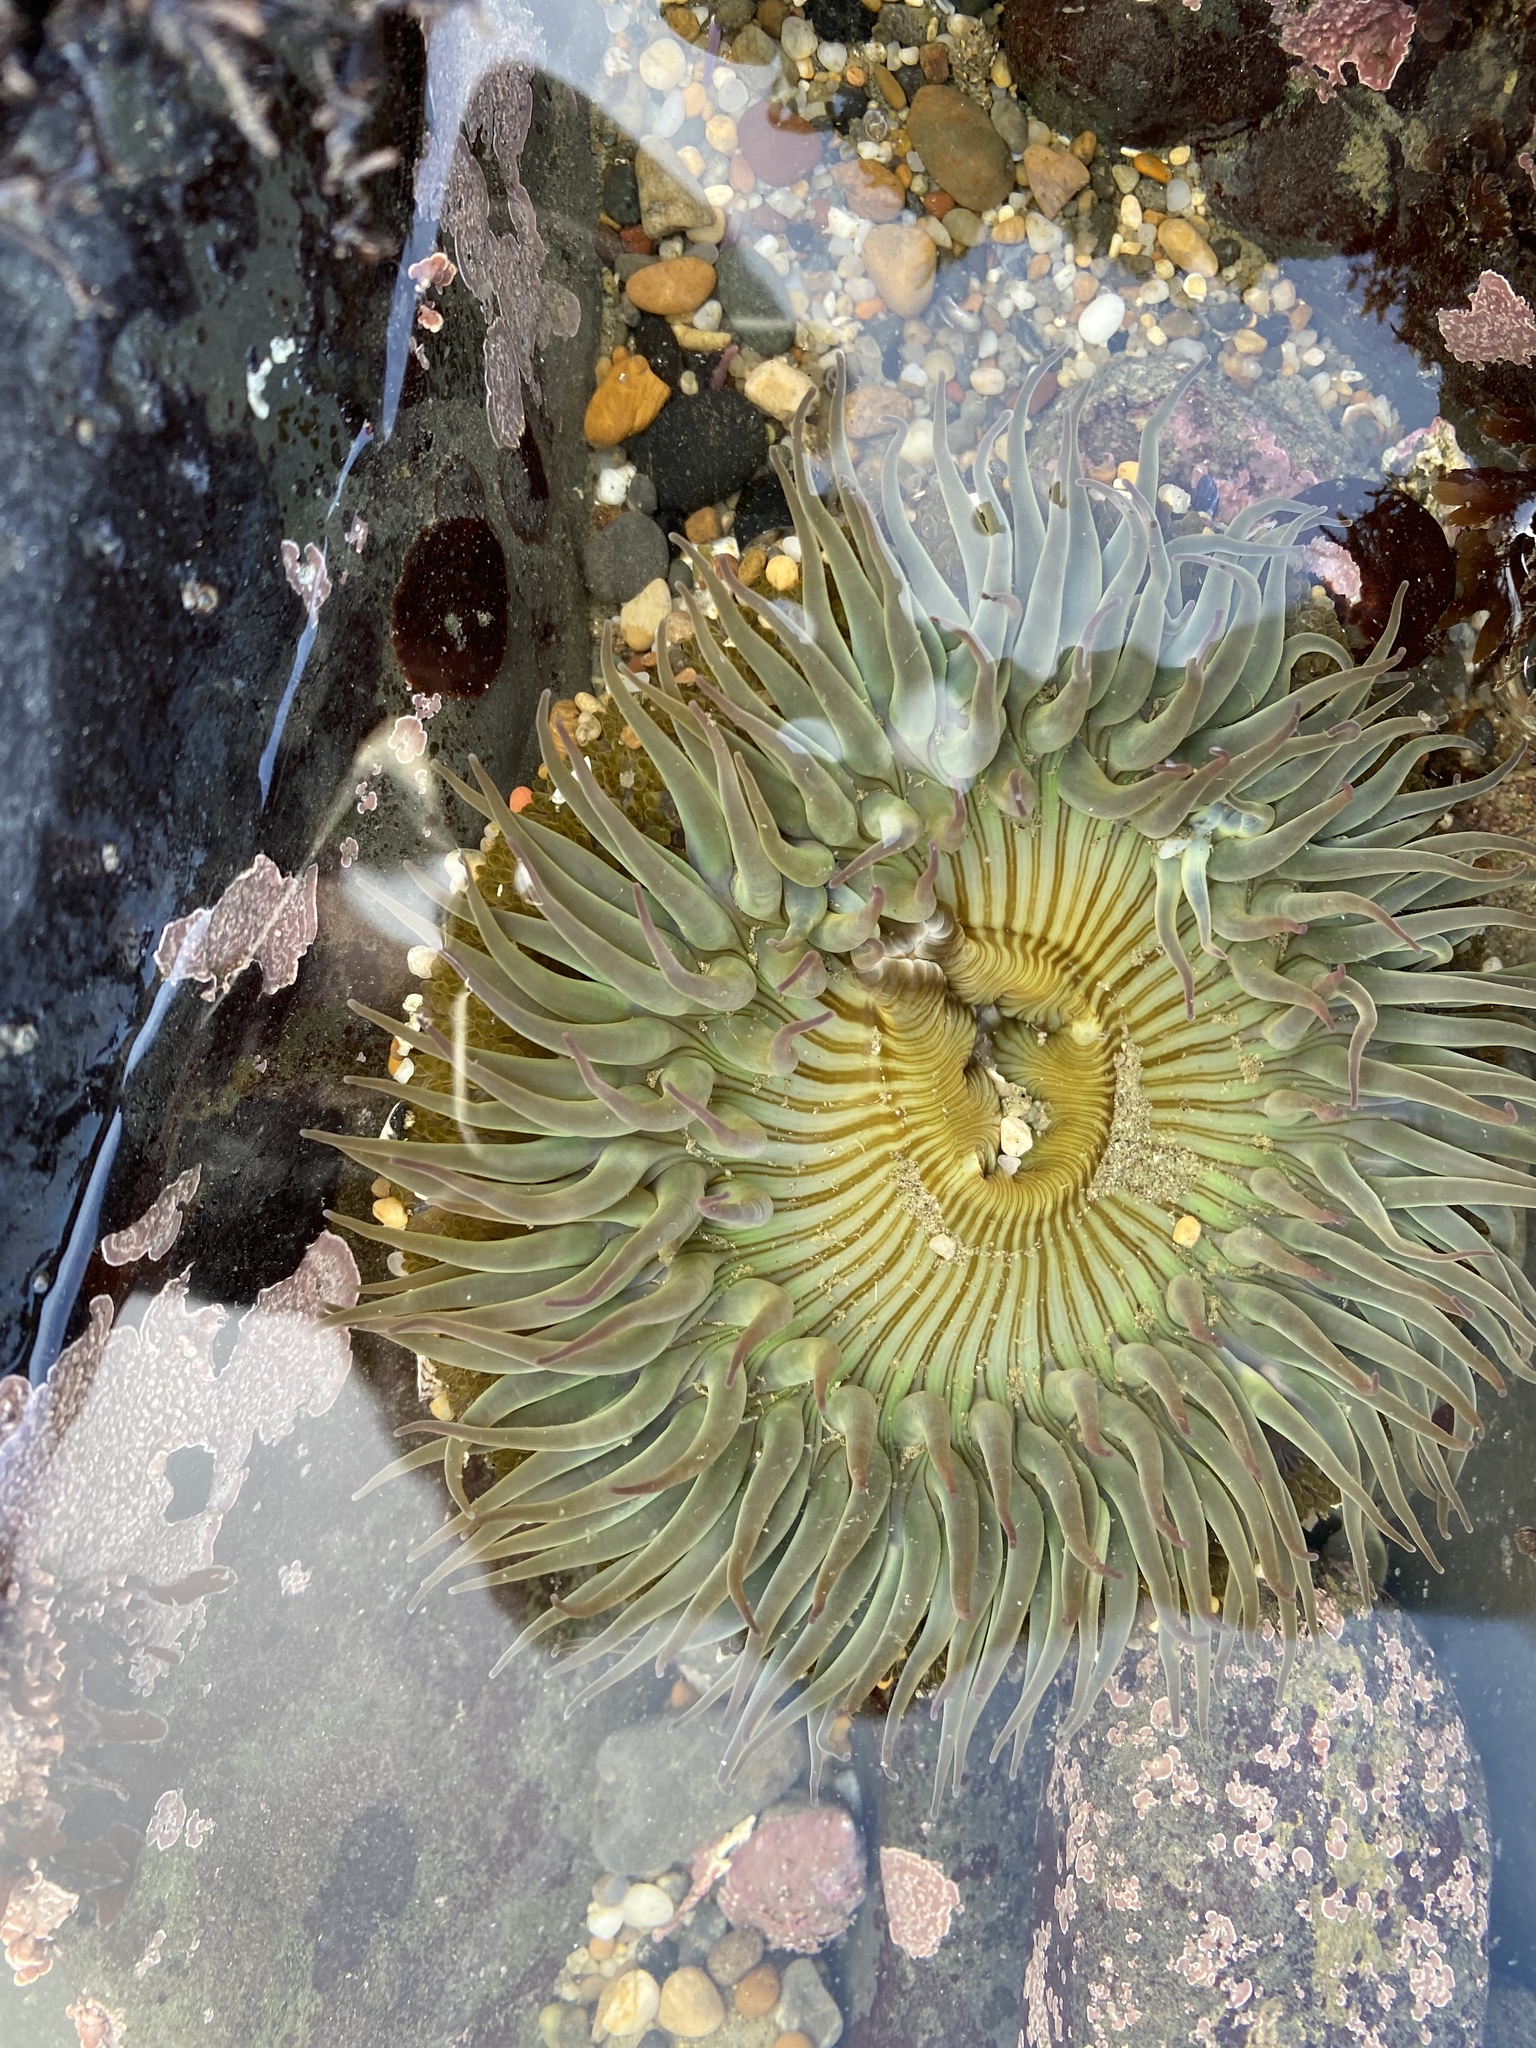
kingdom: Animalia
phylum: Cnidaria
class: Anthozoa
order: Actiniaria
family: Actiniidae
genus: Anthopleura
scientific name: Anthopleura sola
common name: Sun anemone
